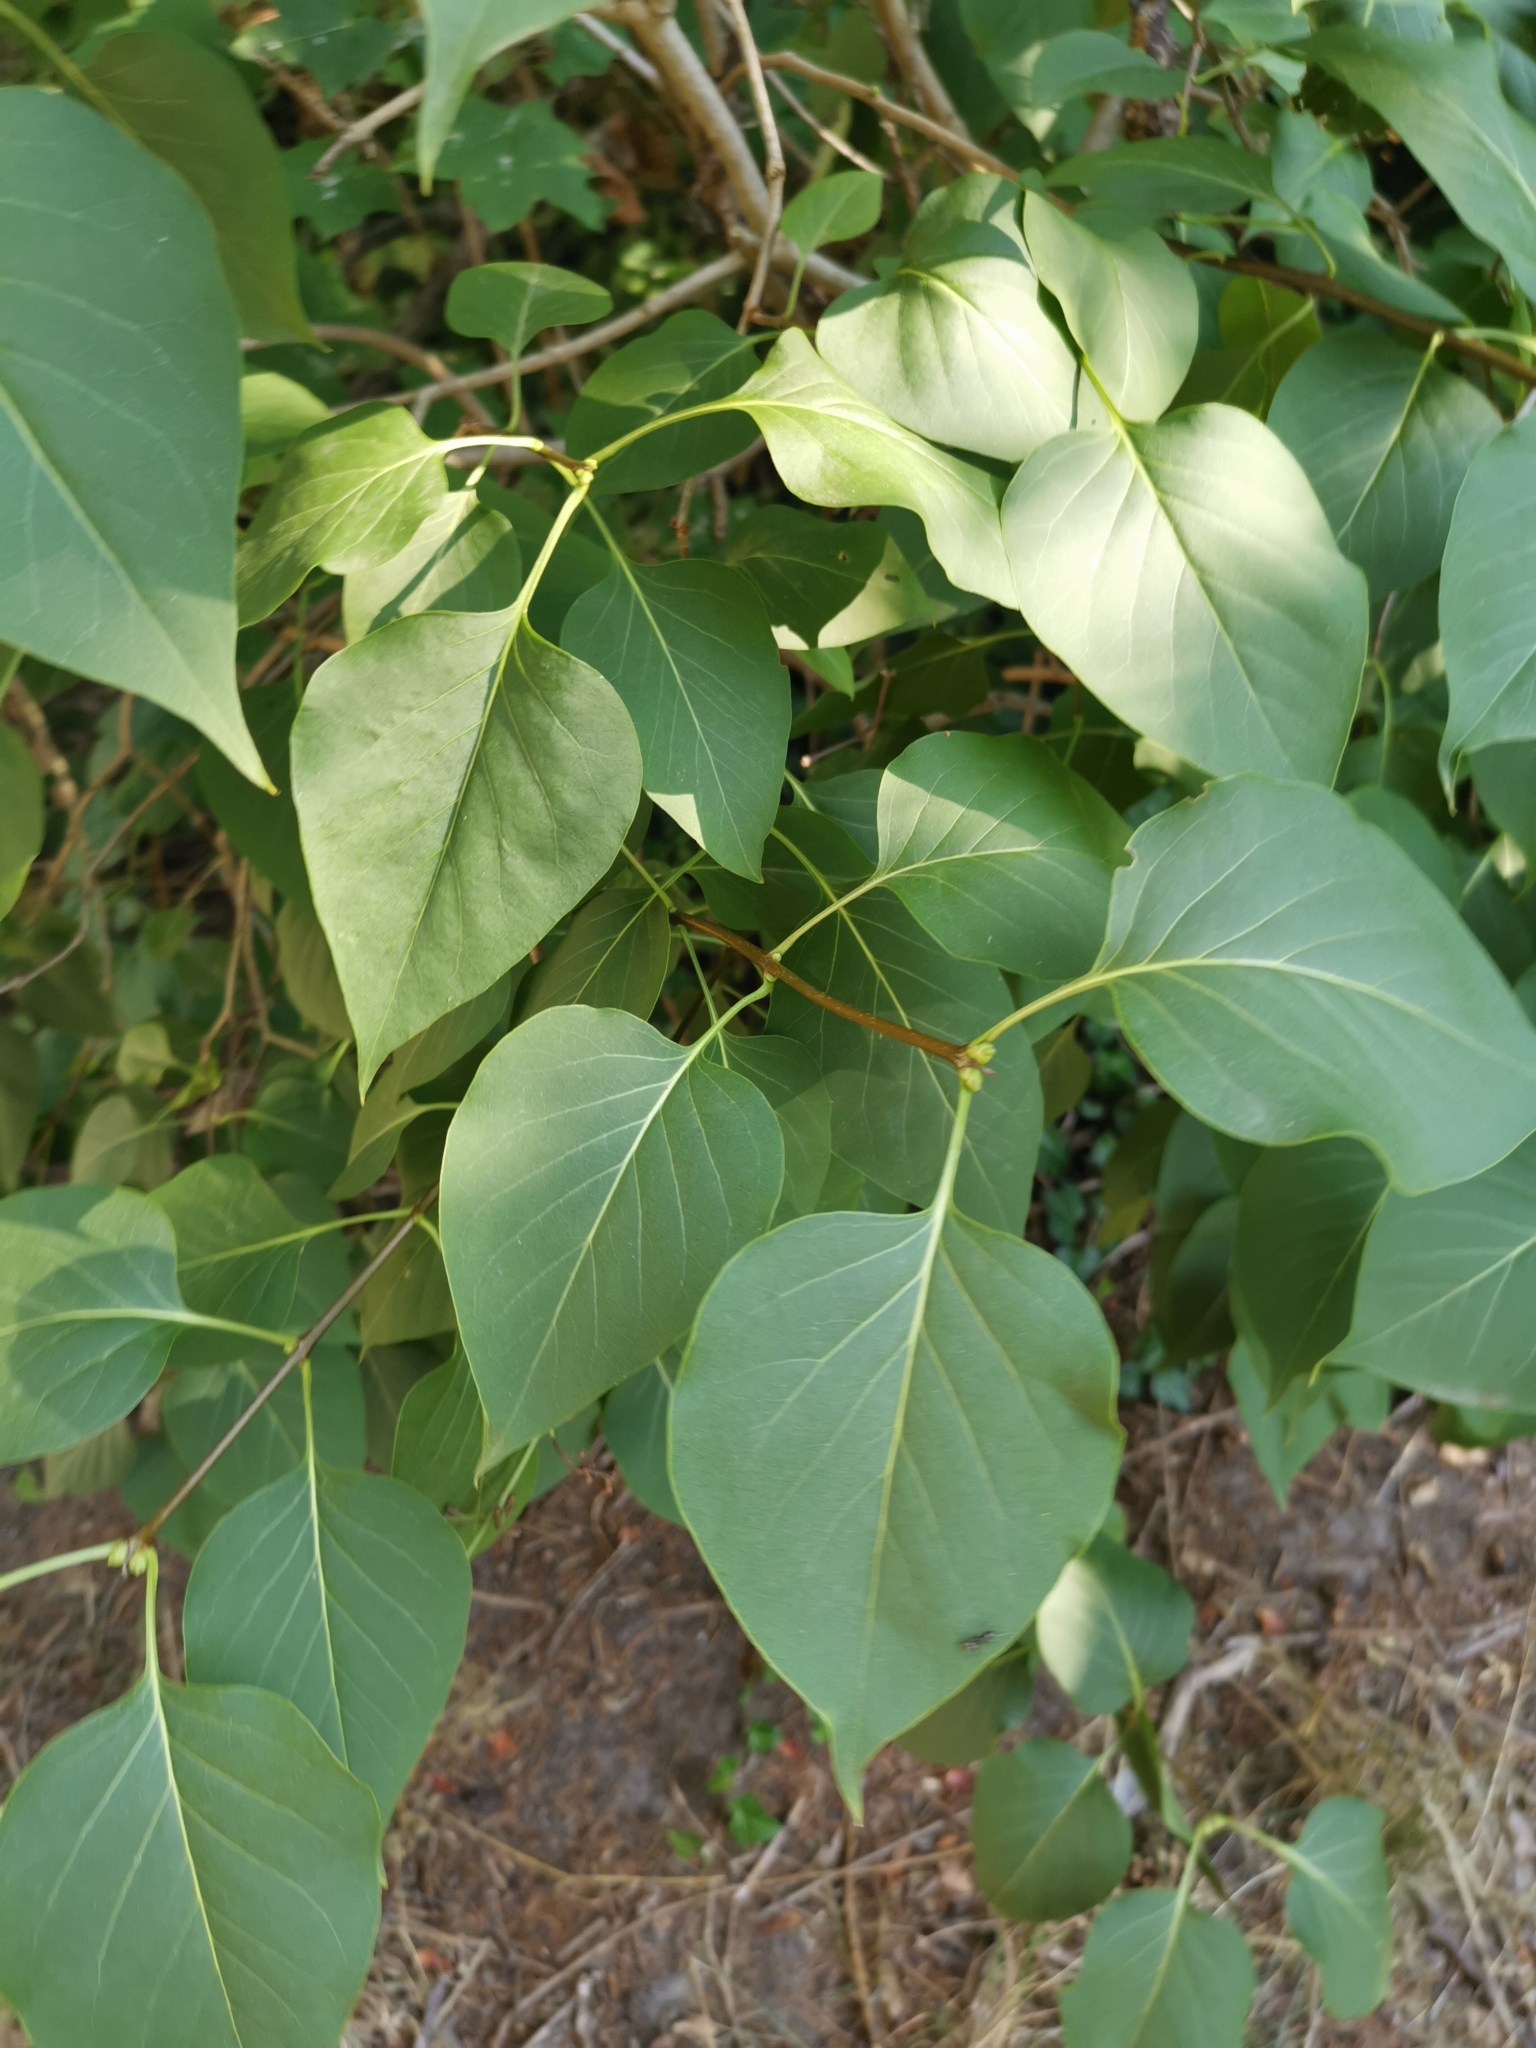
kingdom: Plantae
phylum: Tracheophyta
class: Magnoliopsida
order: Lamiales
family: Oleaceae
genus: Syringa
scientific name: Syringa vulgaris
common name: Common lilac
